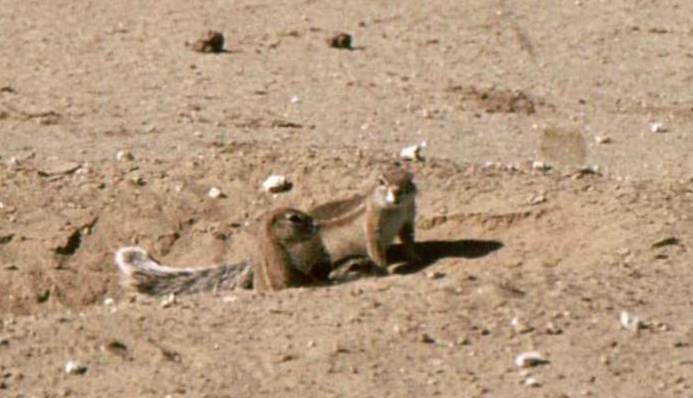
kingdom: Animalia
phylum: Chordata
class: Mammalia
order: Rodentia
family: Sciuridae
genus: Xerus
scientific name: Xerus inauris
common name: South african ground squirrel
